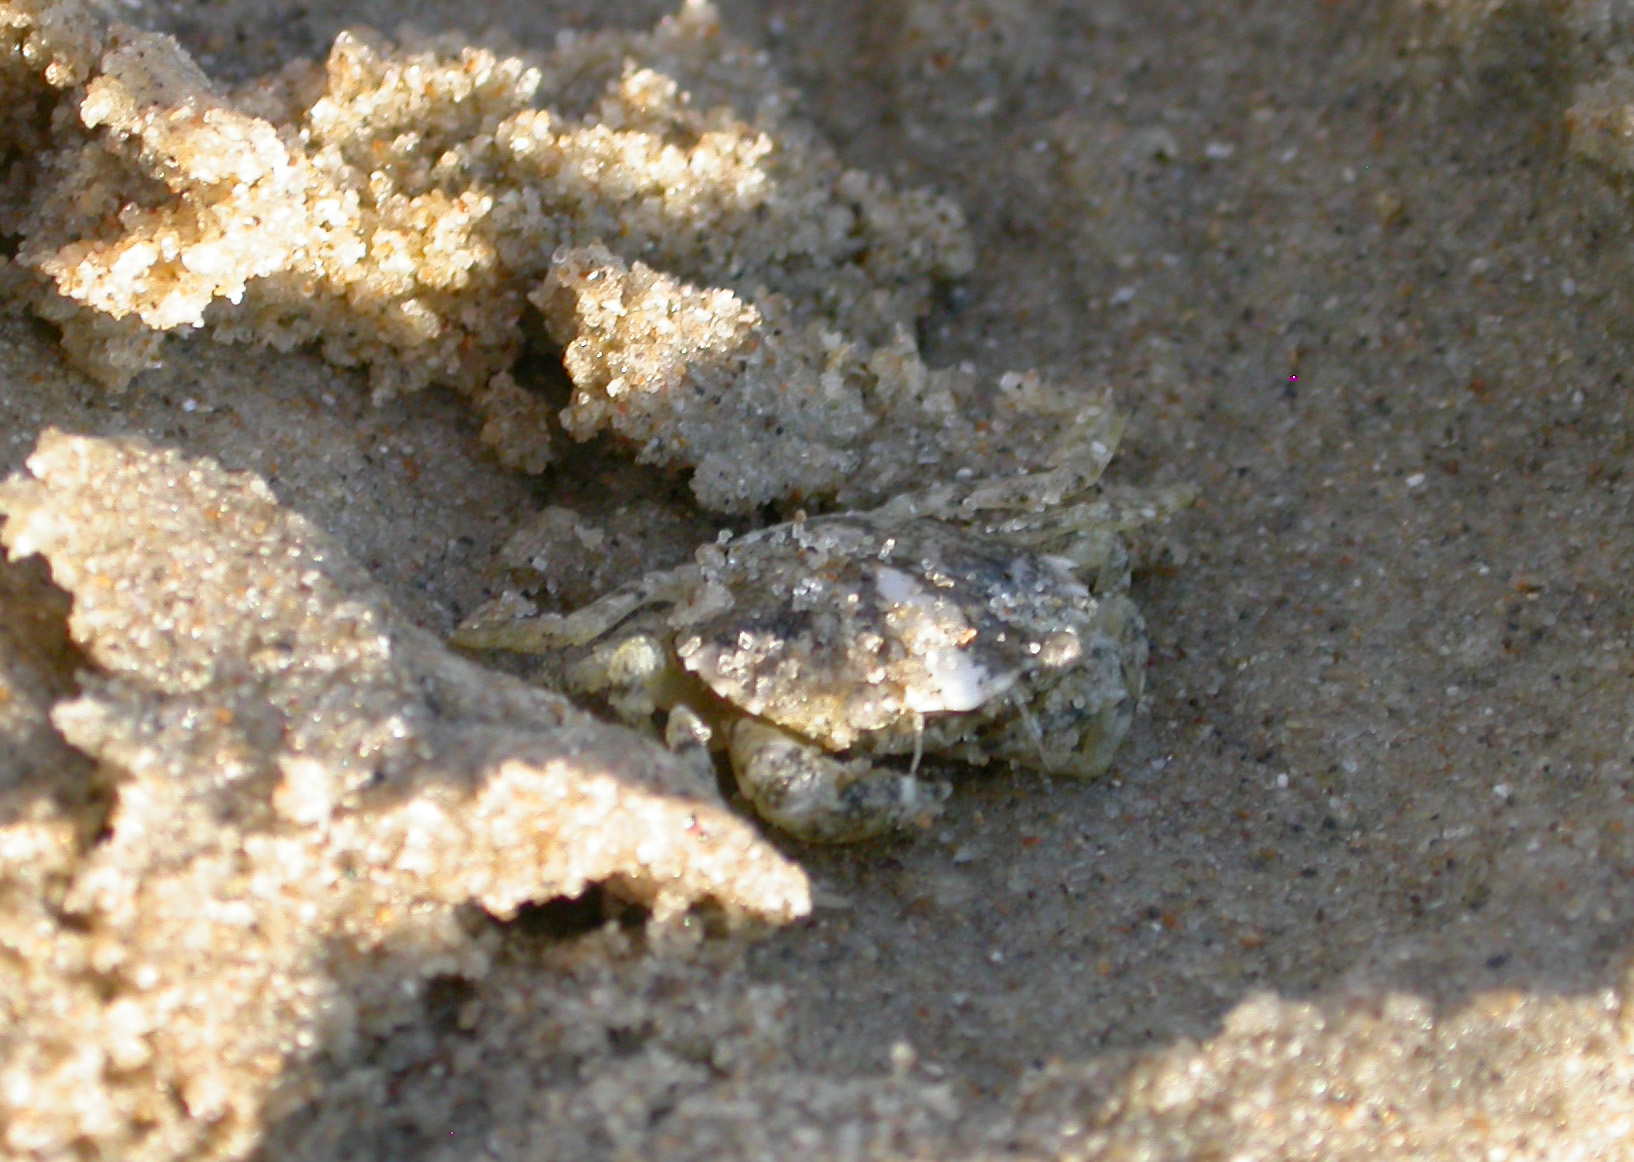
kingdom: Animalia
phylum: Arthropoda
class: Malacostraca
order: Decapoda
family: Carcinidae
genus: Carcinus
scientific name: Carcinus maenas
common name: European green crab
